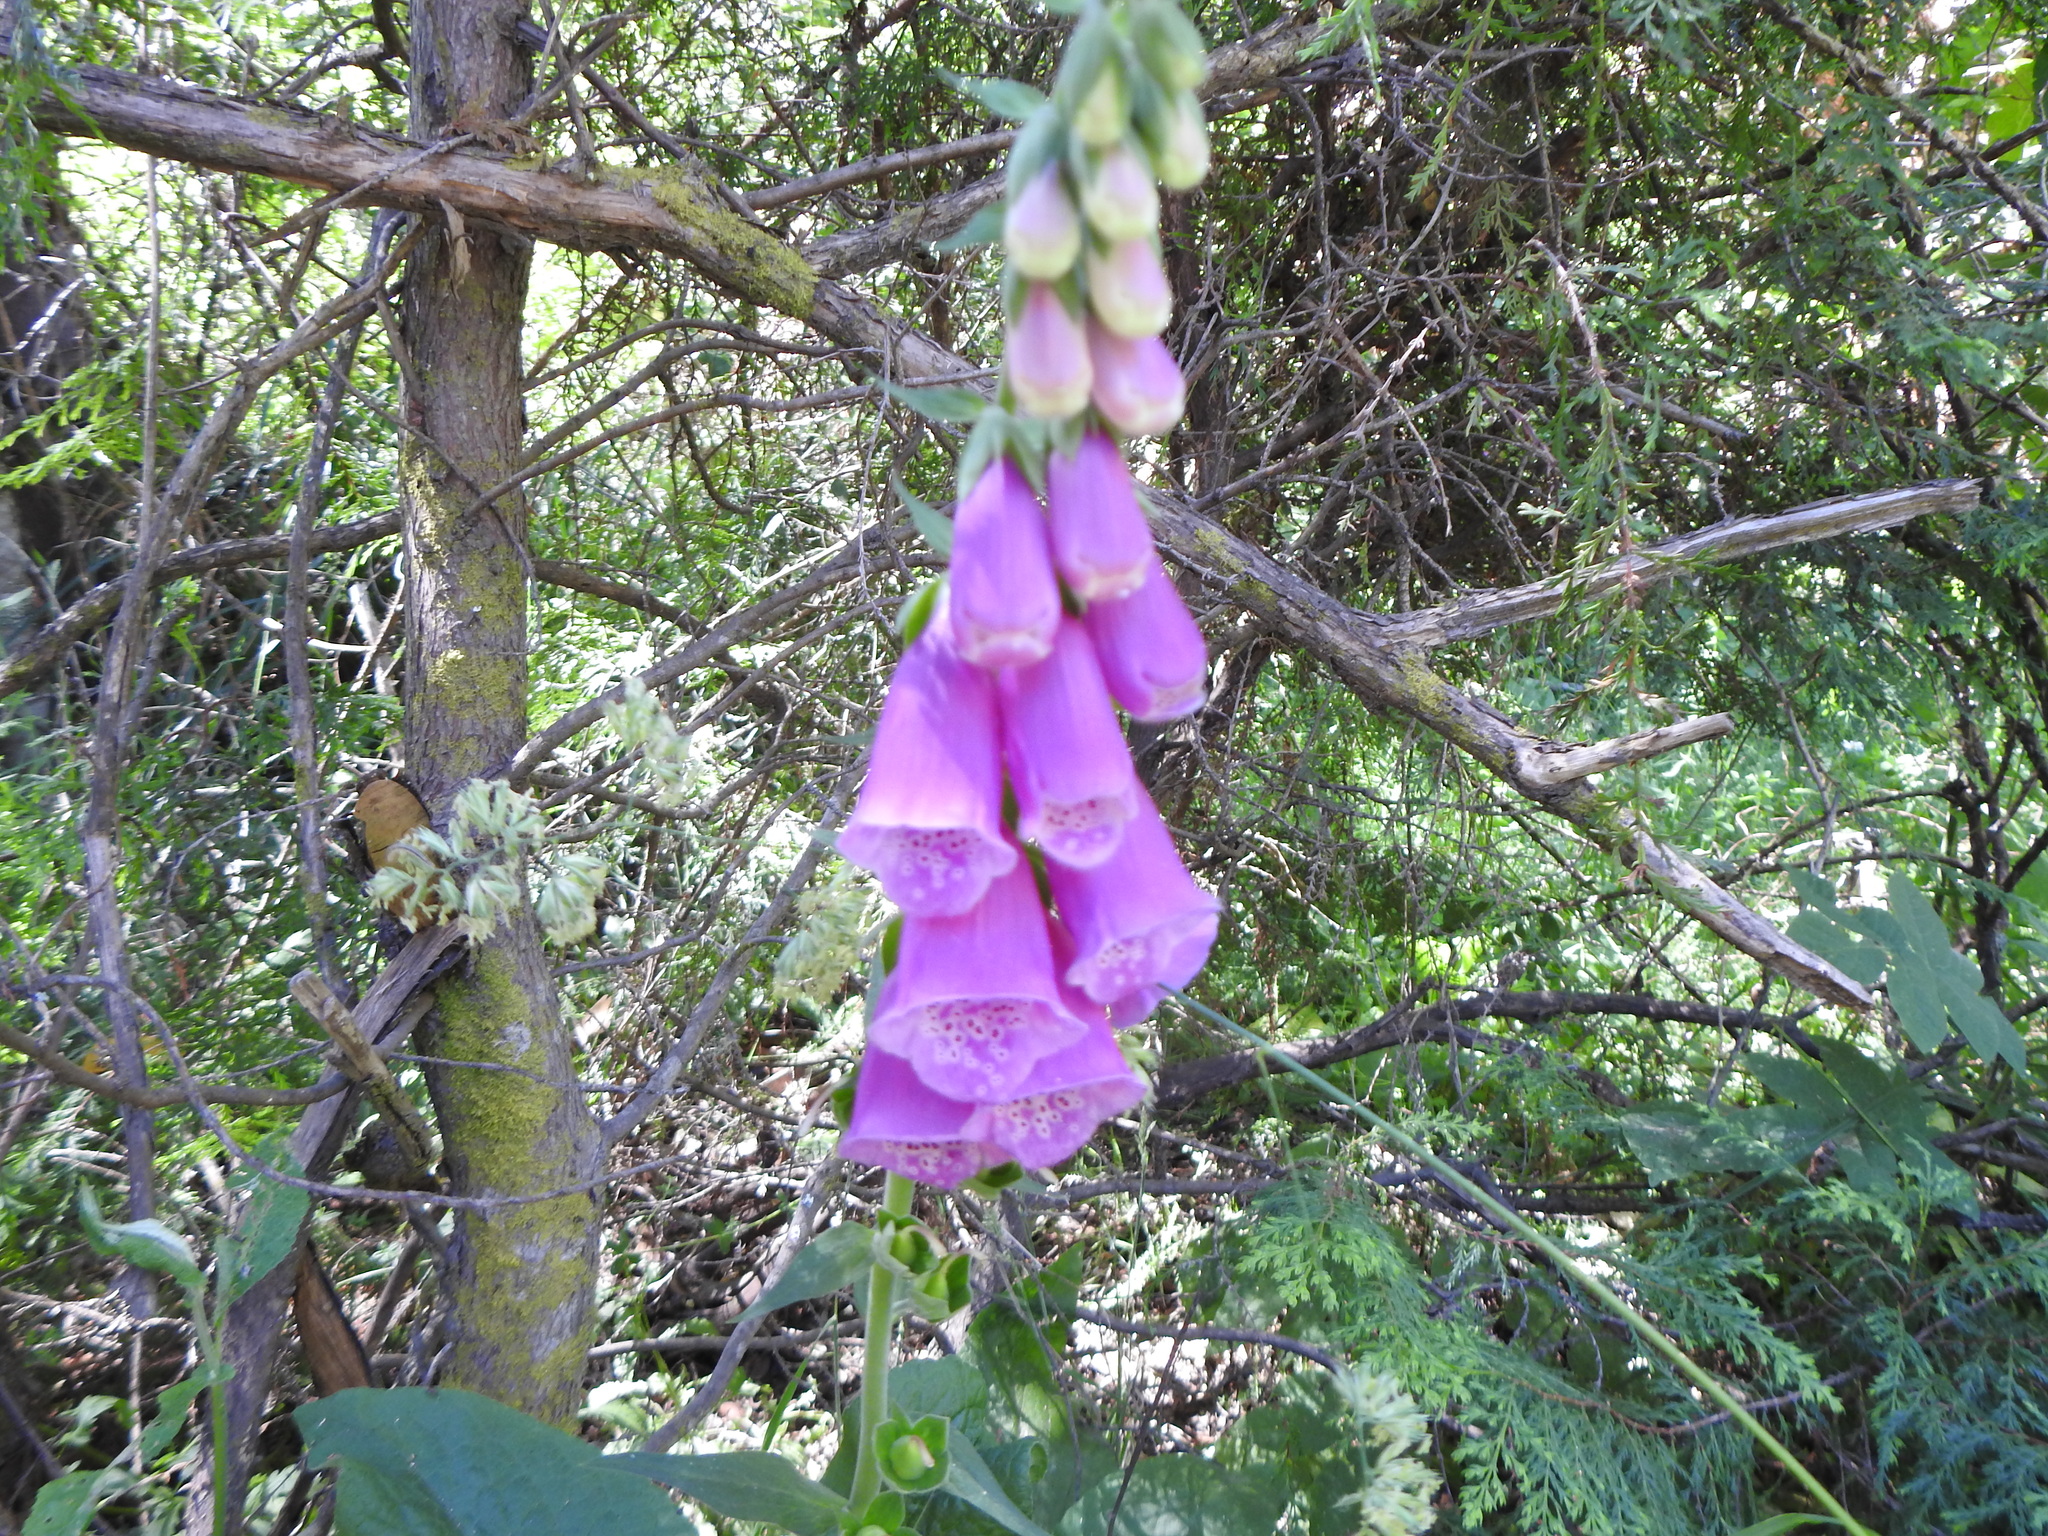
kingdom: Plantae
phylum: Tracheophyta
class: Magnoliopsida
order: Lamiales
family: Plantaginaceae
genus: Digitalis
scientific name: Digitalis purpurea
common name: Foxglove
